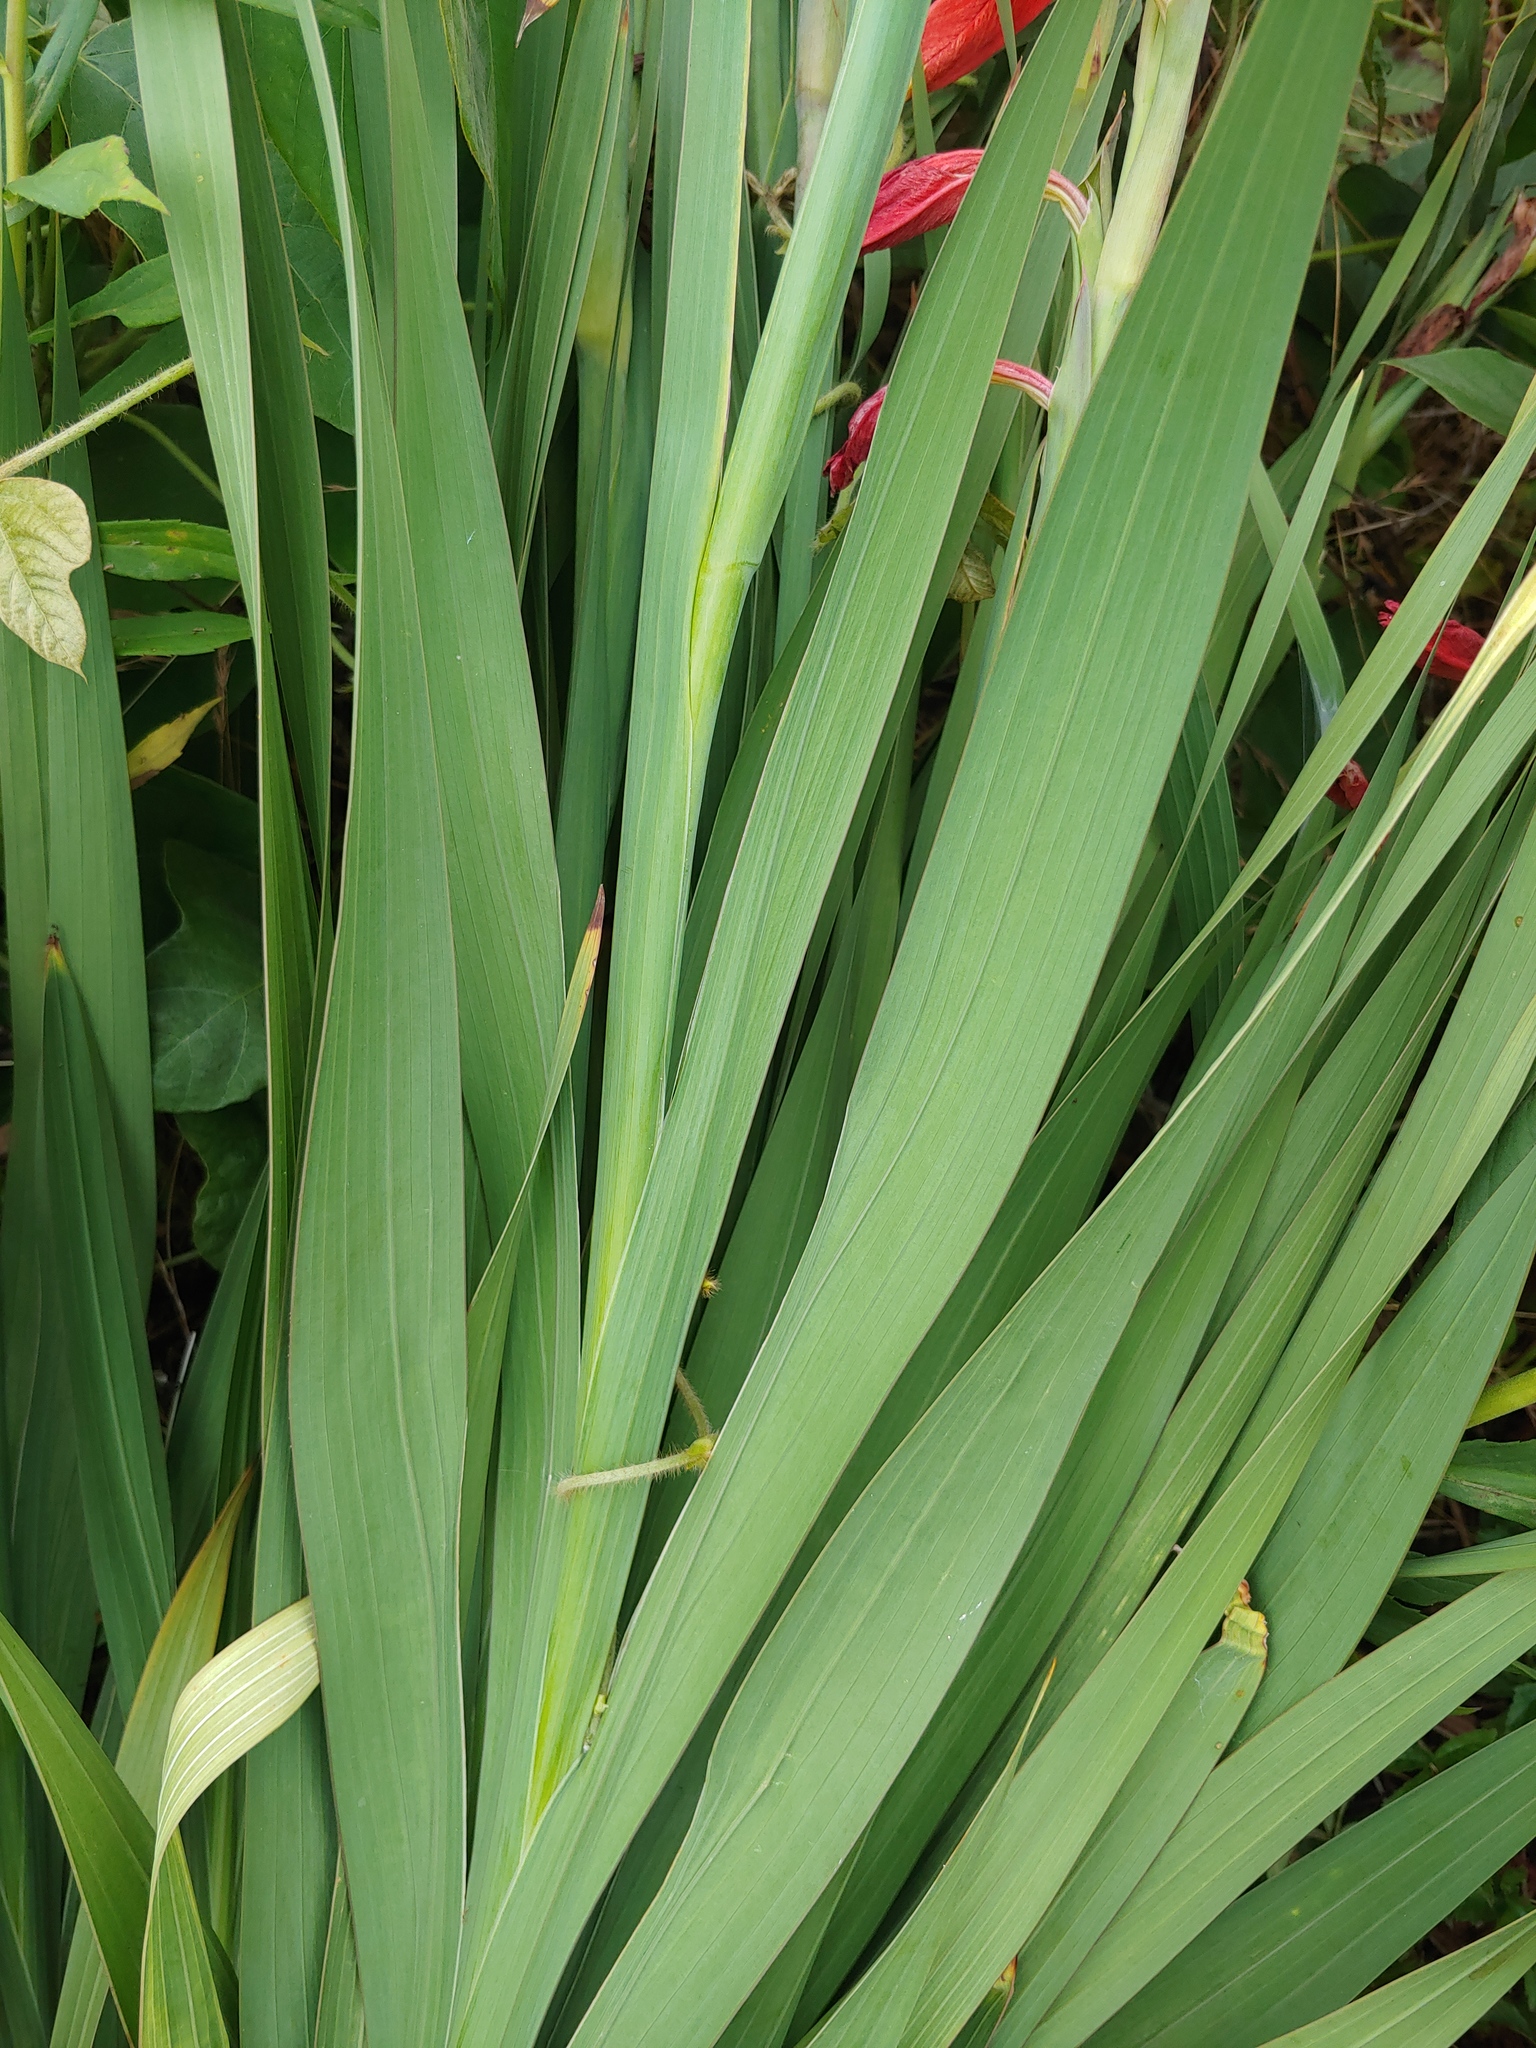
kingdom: Plantae
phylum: Tracheophyta
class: Liliopsida
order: Asparagales
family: Iridaceae
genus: Gladiolus
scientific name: Gladiolus dalenii
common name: Cornflag
